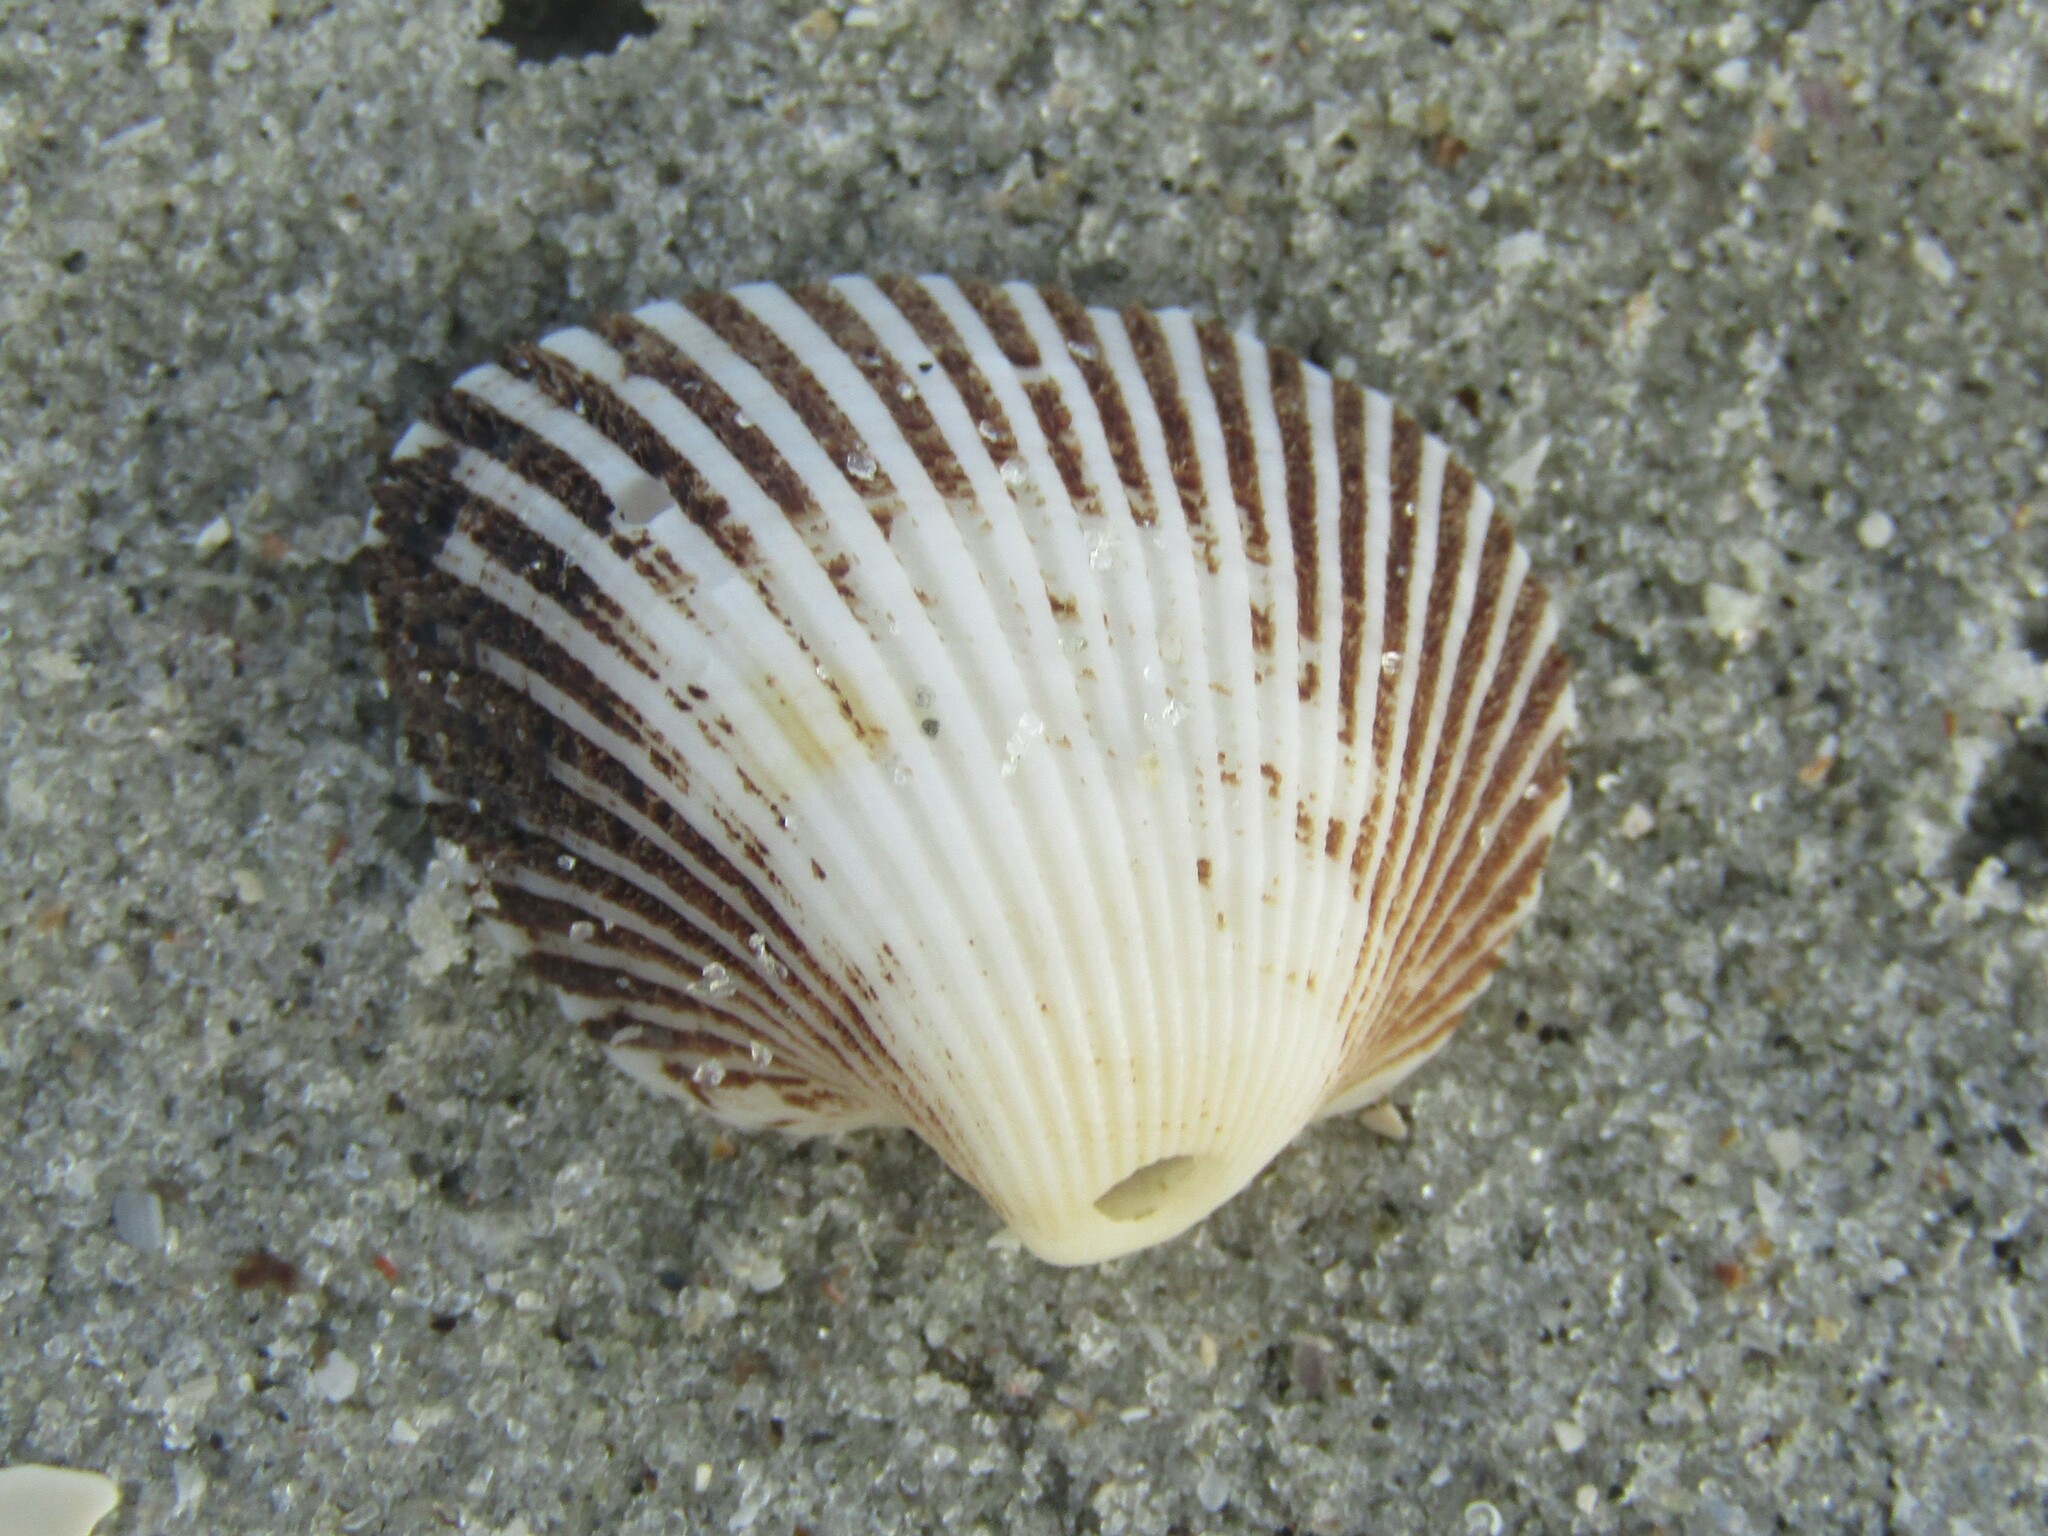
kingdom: Animalia
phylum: Mollusca
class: Bivalvia
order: Arcida
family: Noetiidae
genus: Noetia
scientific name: Noetia ponderosa
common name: Ponderous ark
